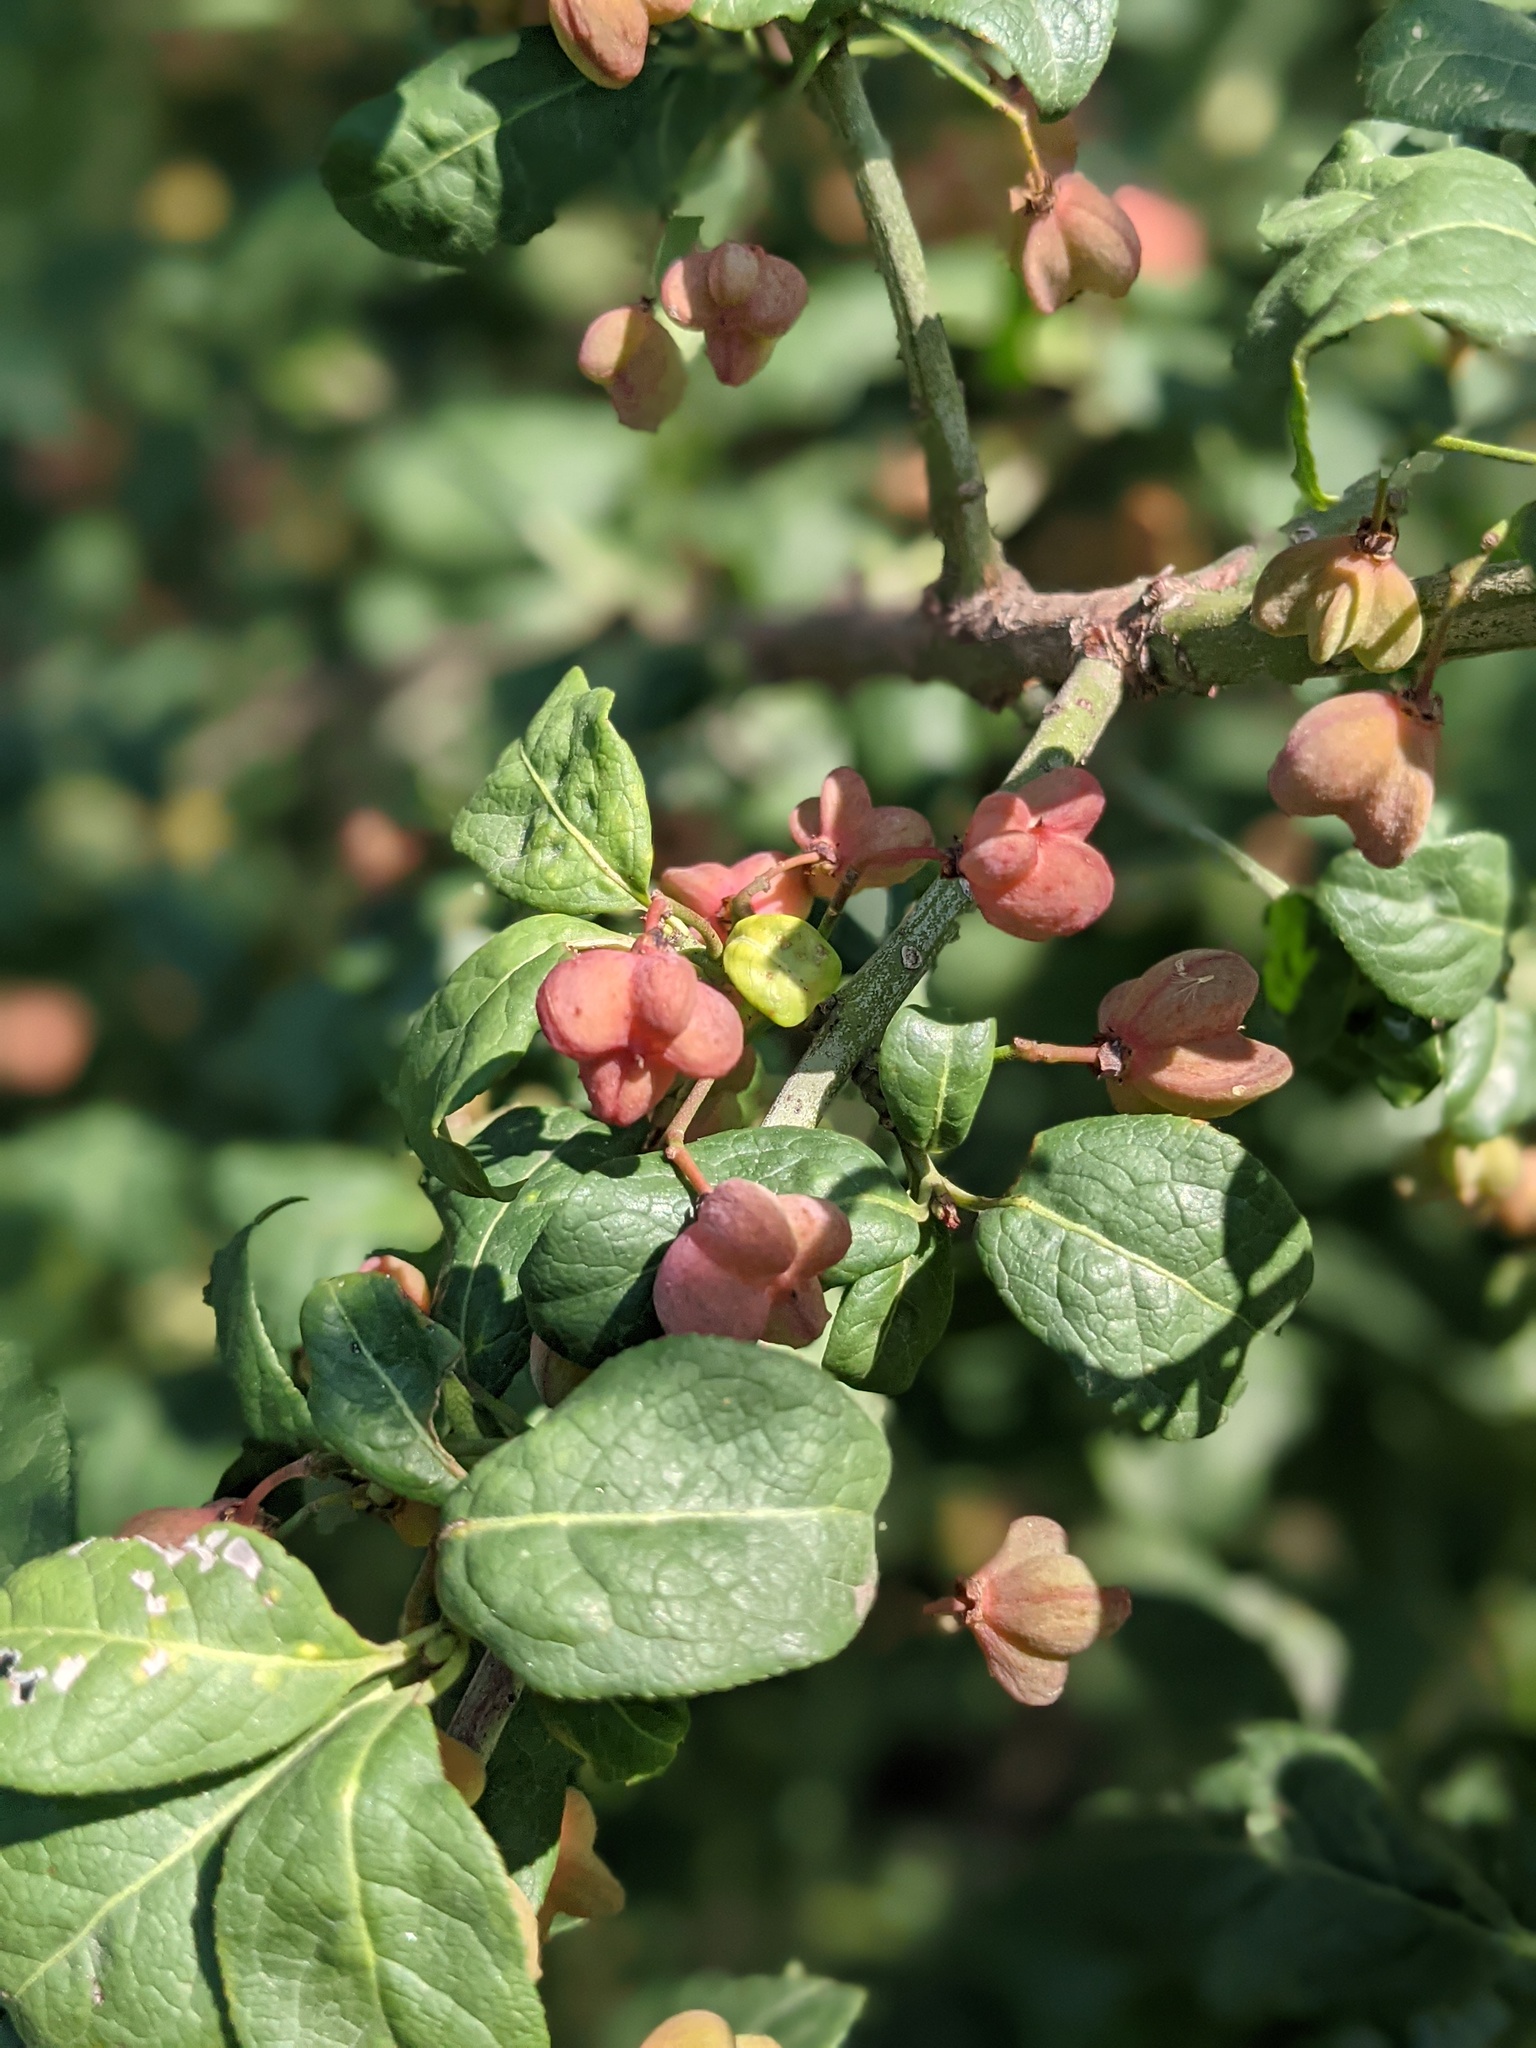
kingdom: Plantae
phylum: Tracheophyta
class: Magnoliopsida
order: Celastrales
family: Celastraceae
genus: Euonymus
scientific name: Euonymus europaeus
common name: Spindle
